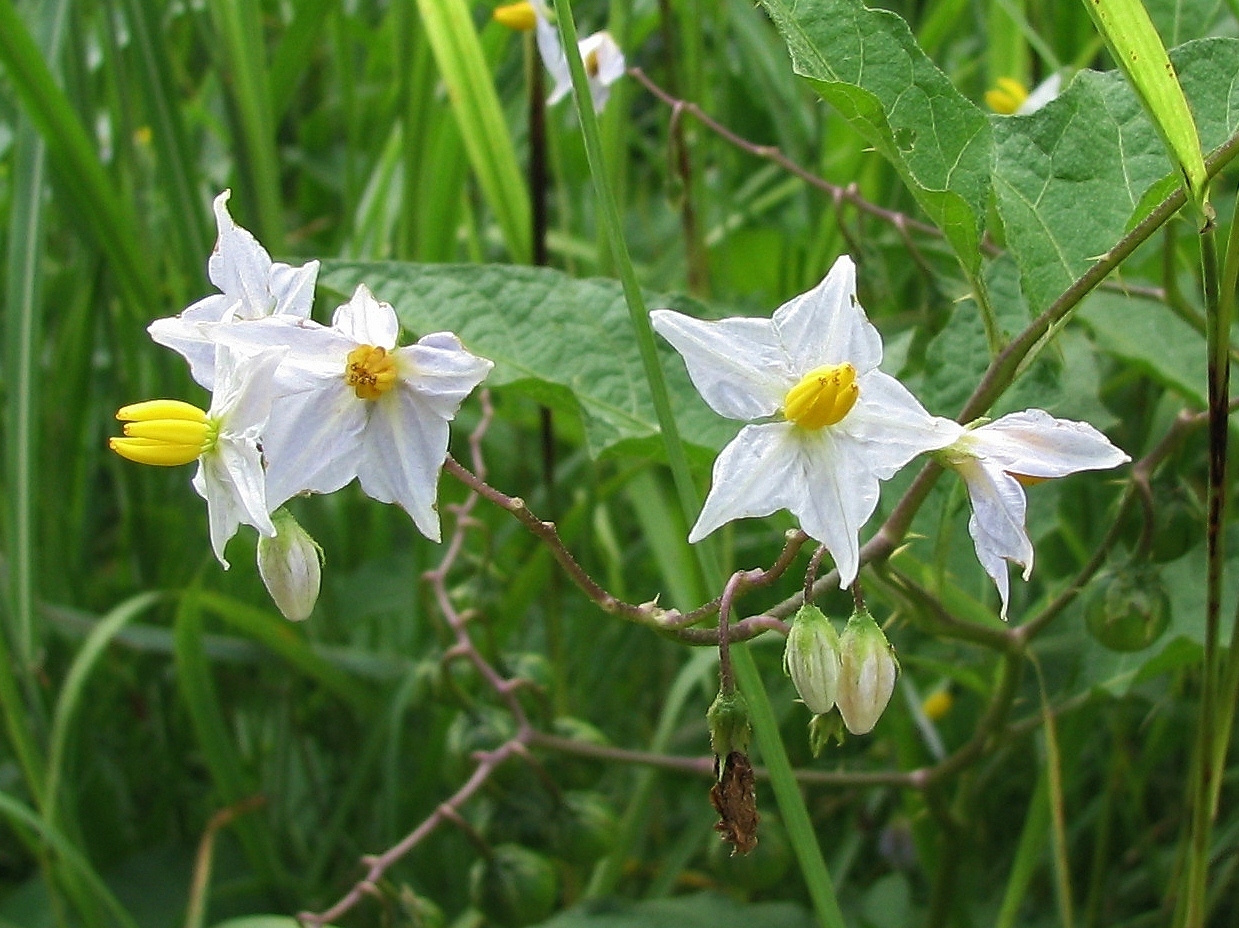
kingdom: Plantae
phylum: Tracheophyta
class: Magnoliopsida
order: Solanales
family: Solanaceae
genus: Solanum
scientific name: Solanum carolinense
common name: Horse-nettle
